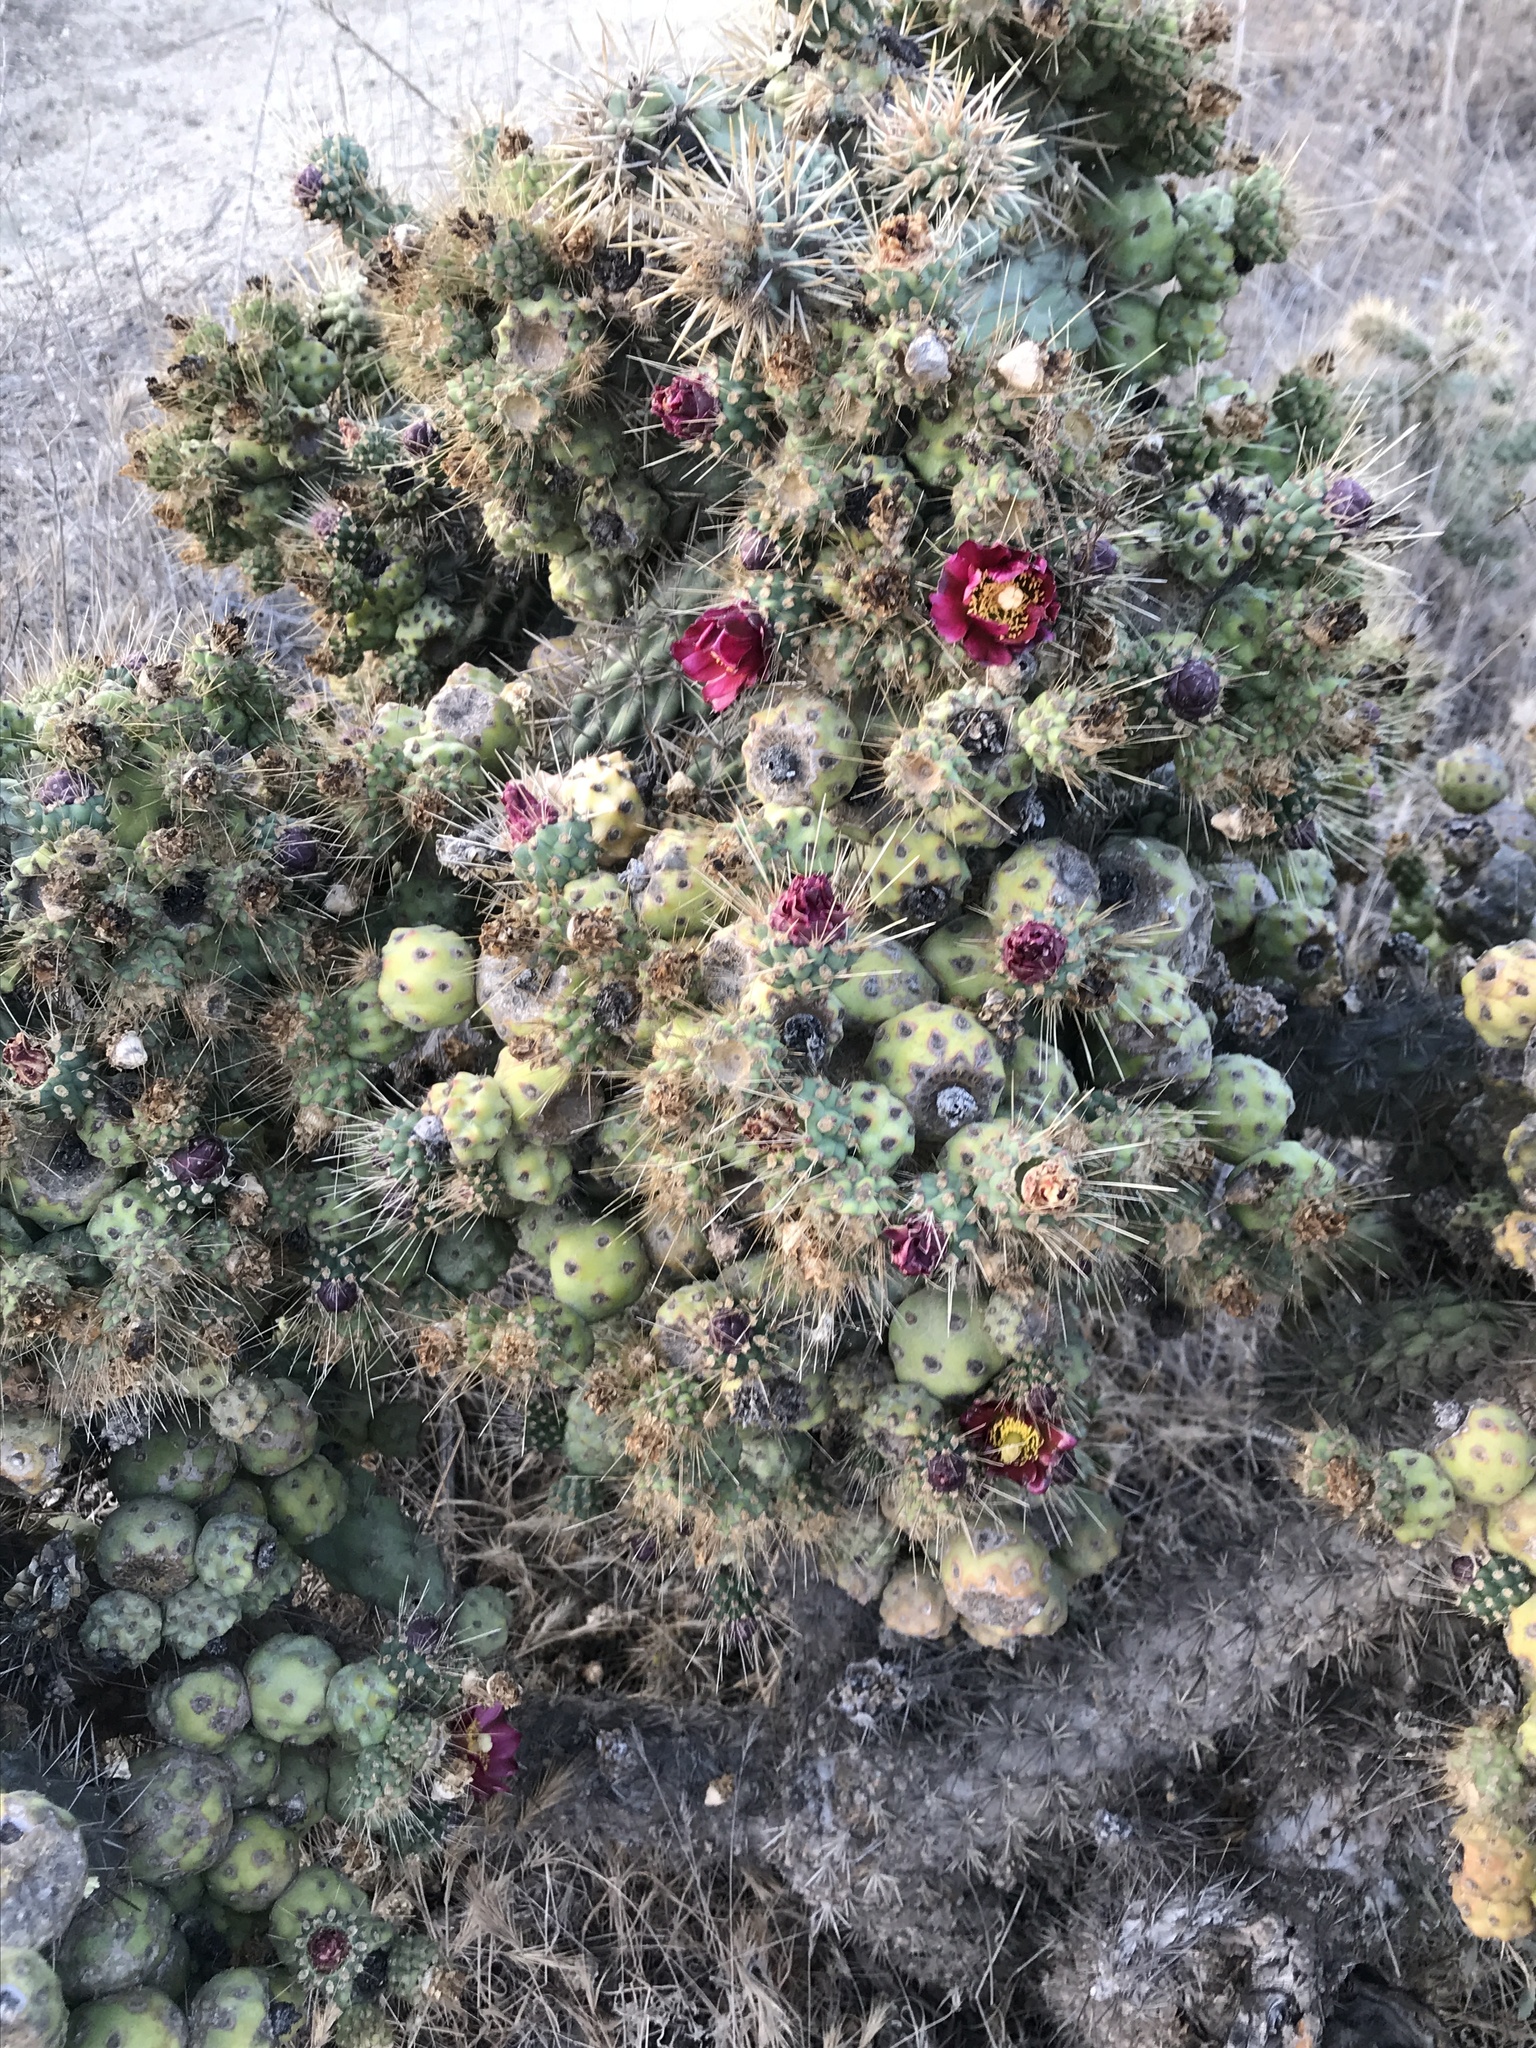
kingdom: Plantae
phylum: Tracheophyta
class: Magnoliopsida
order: Caryophyllales
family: Cactaceae
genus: Cylindropuntia
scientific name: Cylindropuntia prolifera
